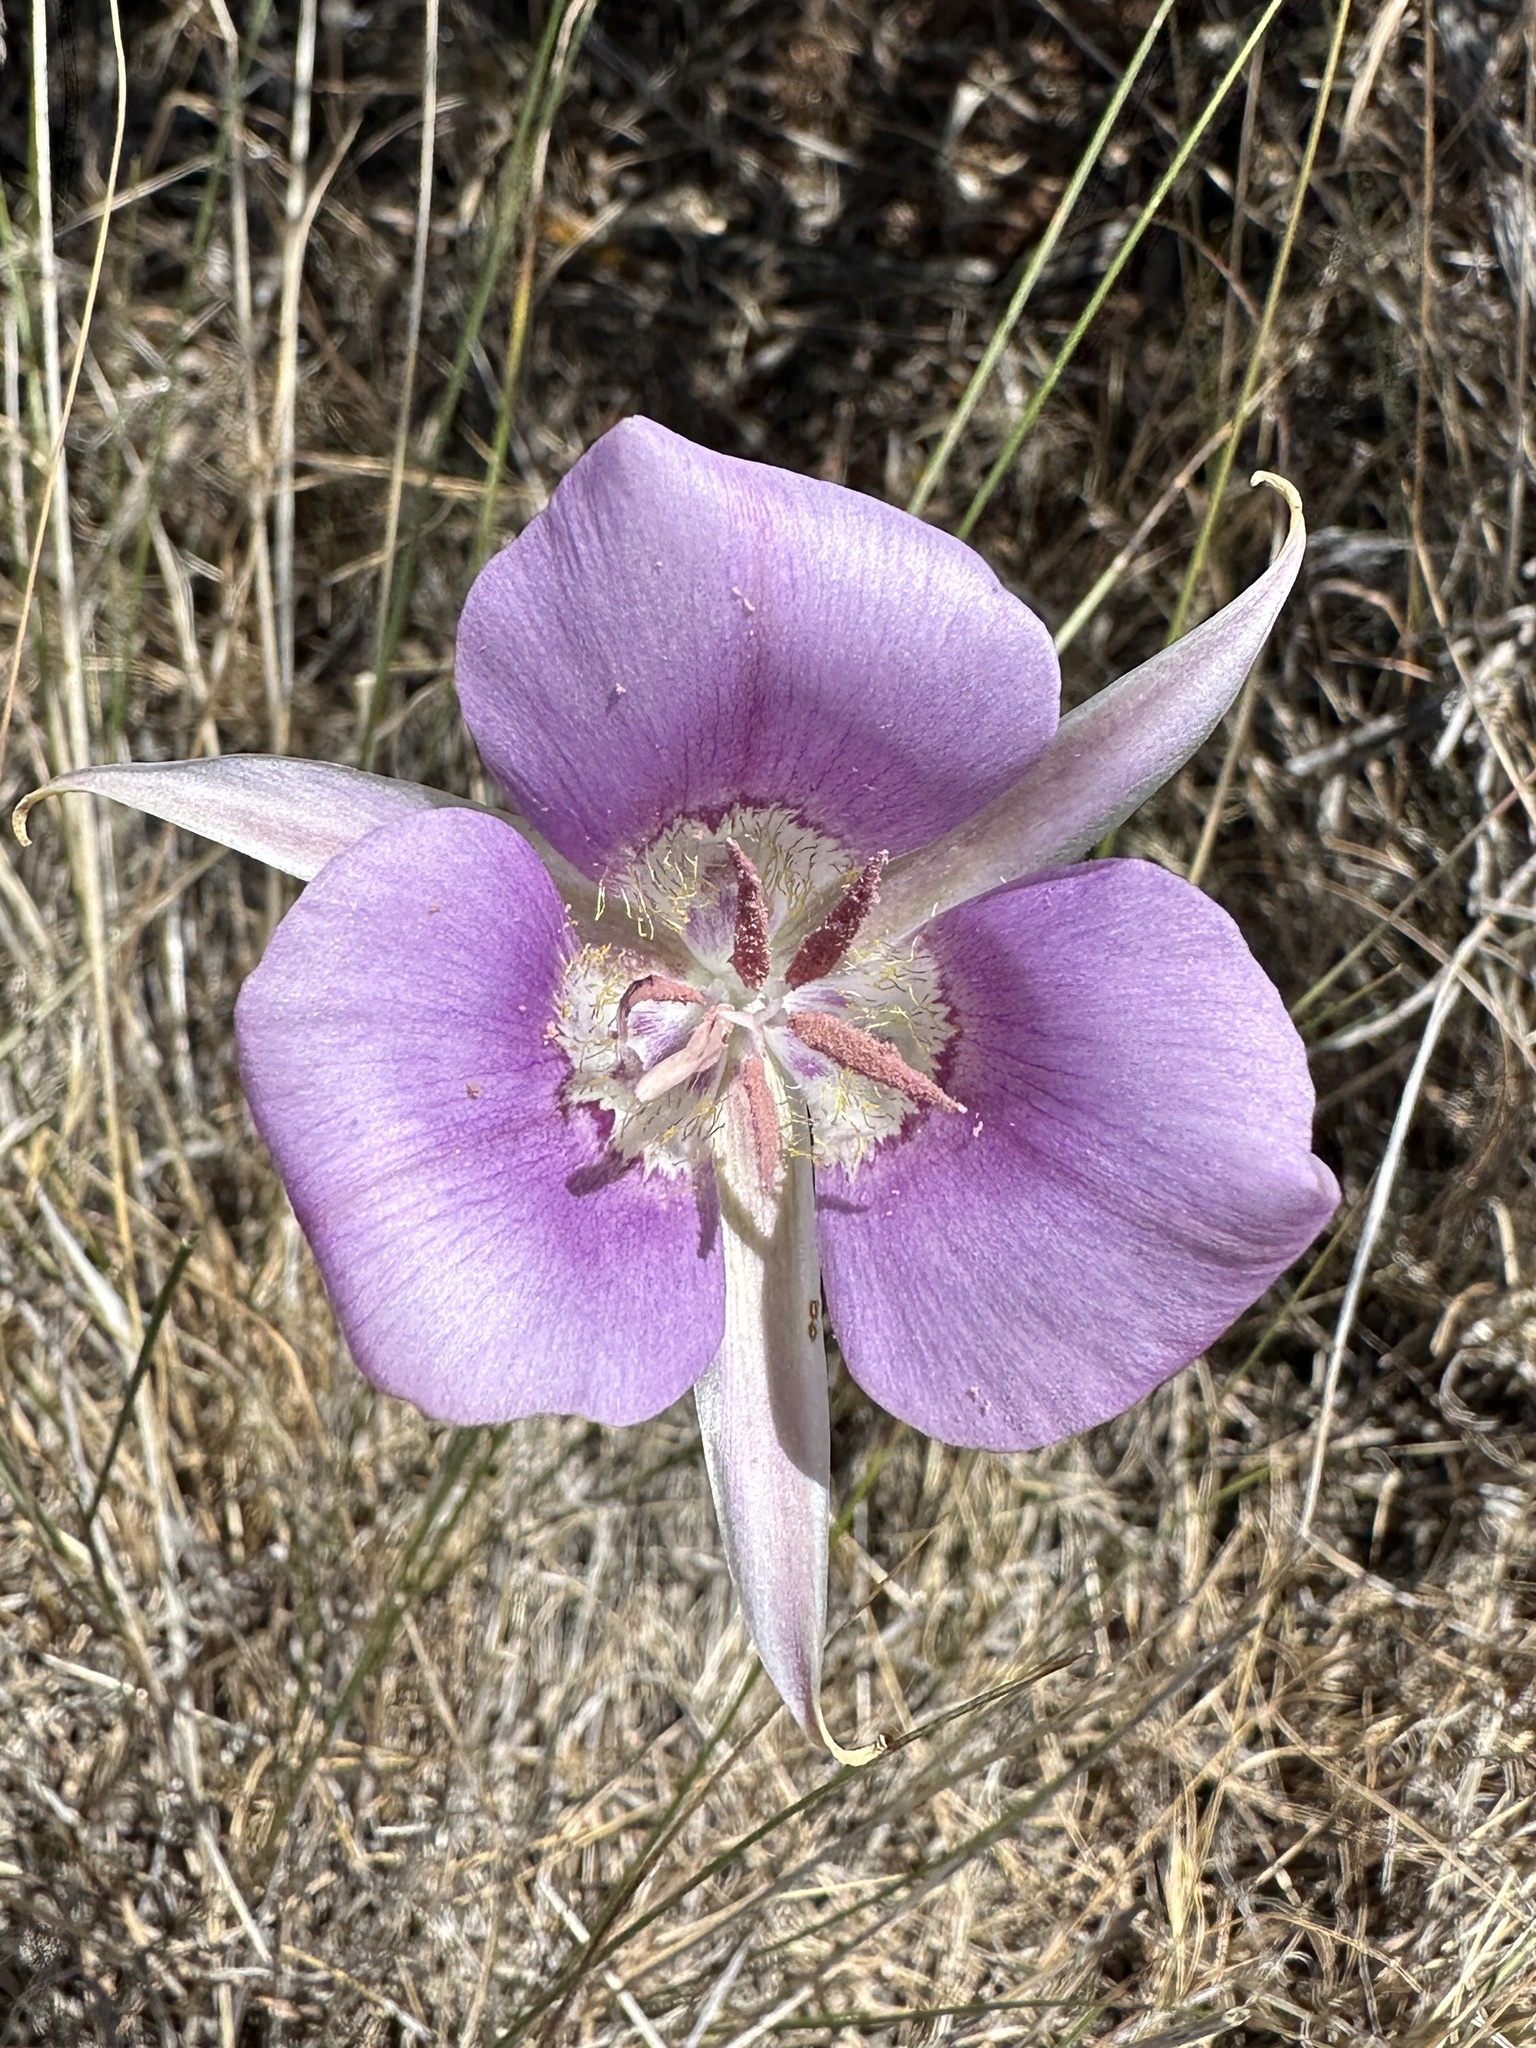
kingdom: Plantae
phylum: Tracheophyta
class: Liliopsida
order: Liliales
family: Liliaceae
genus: Calochortus
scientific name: Calochortus macrocarpus
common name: Green-band mariposa lily
